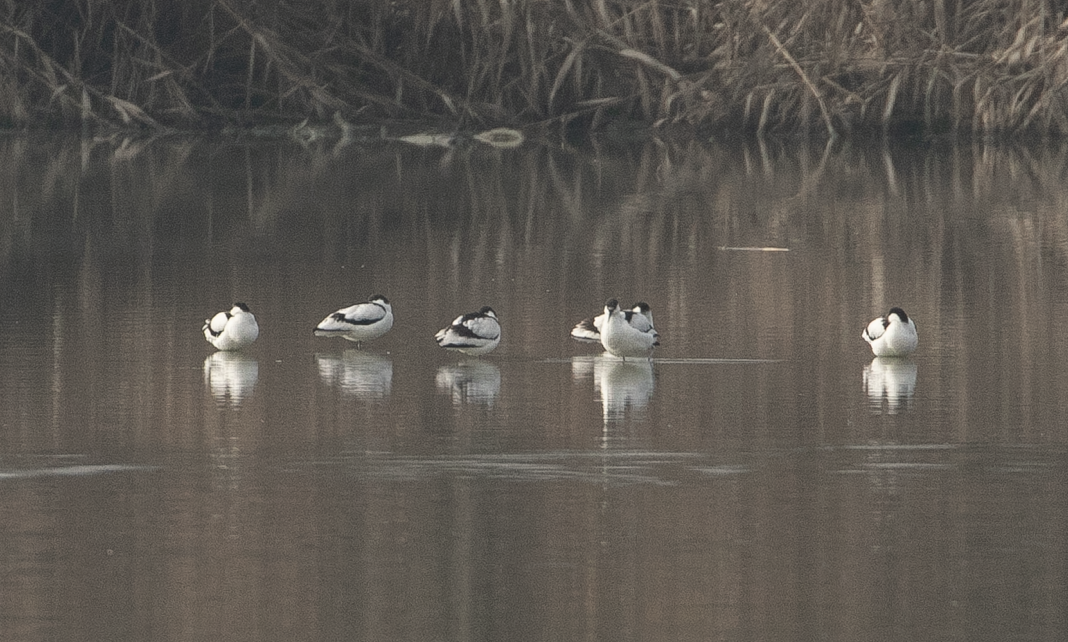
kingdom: Animalia
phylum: Chordata
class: Aves
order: Charadriiformes
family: Recurvirostridae
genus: Recurvirostra
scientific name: Recurvirostra avosetta
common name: Pied avocet
